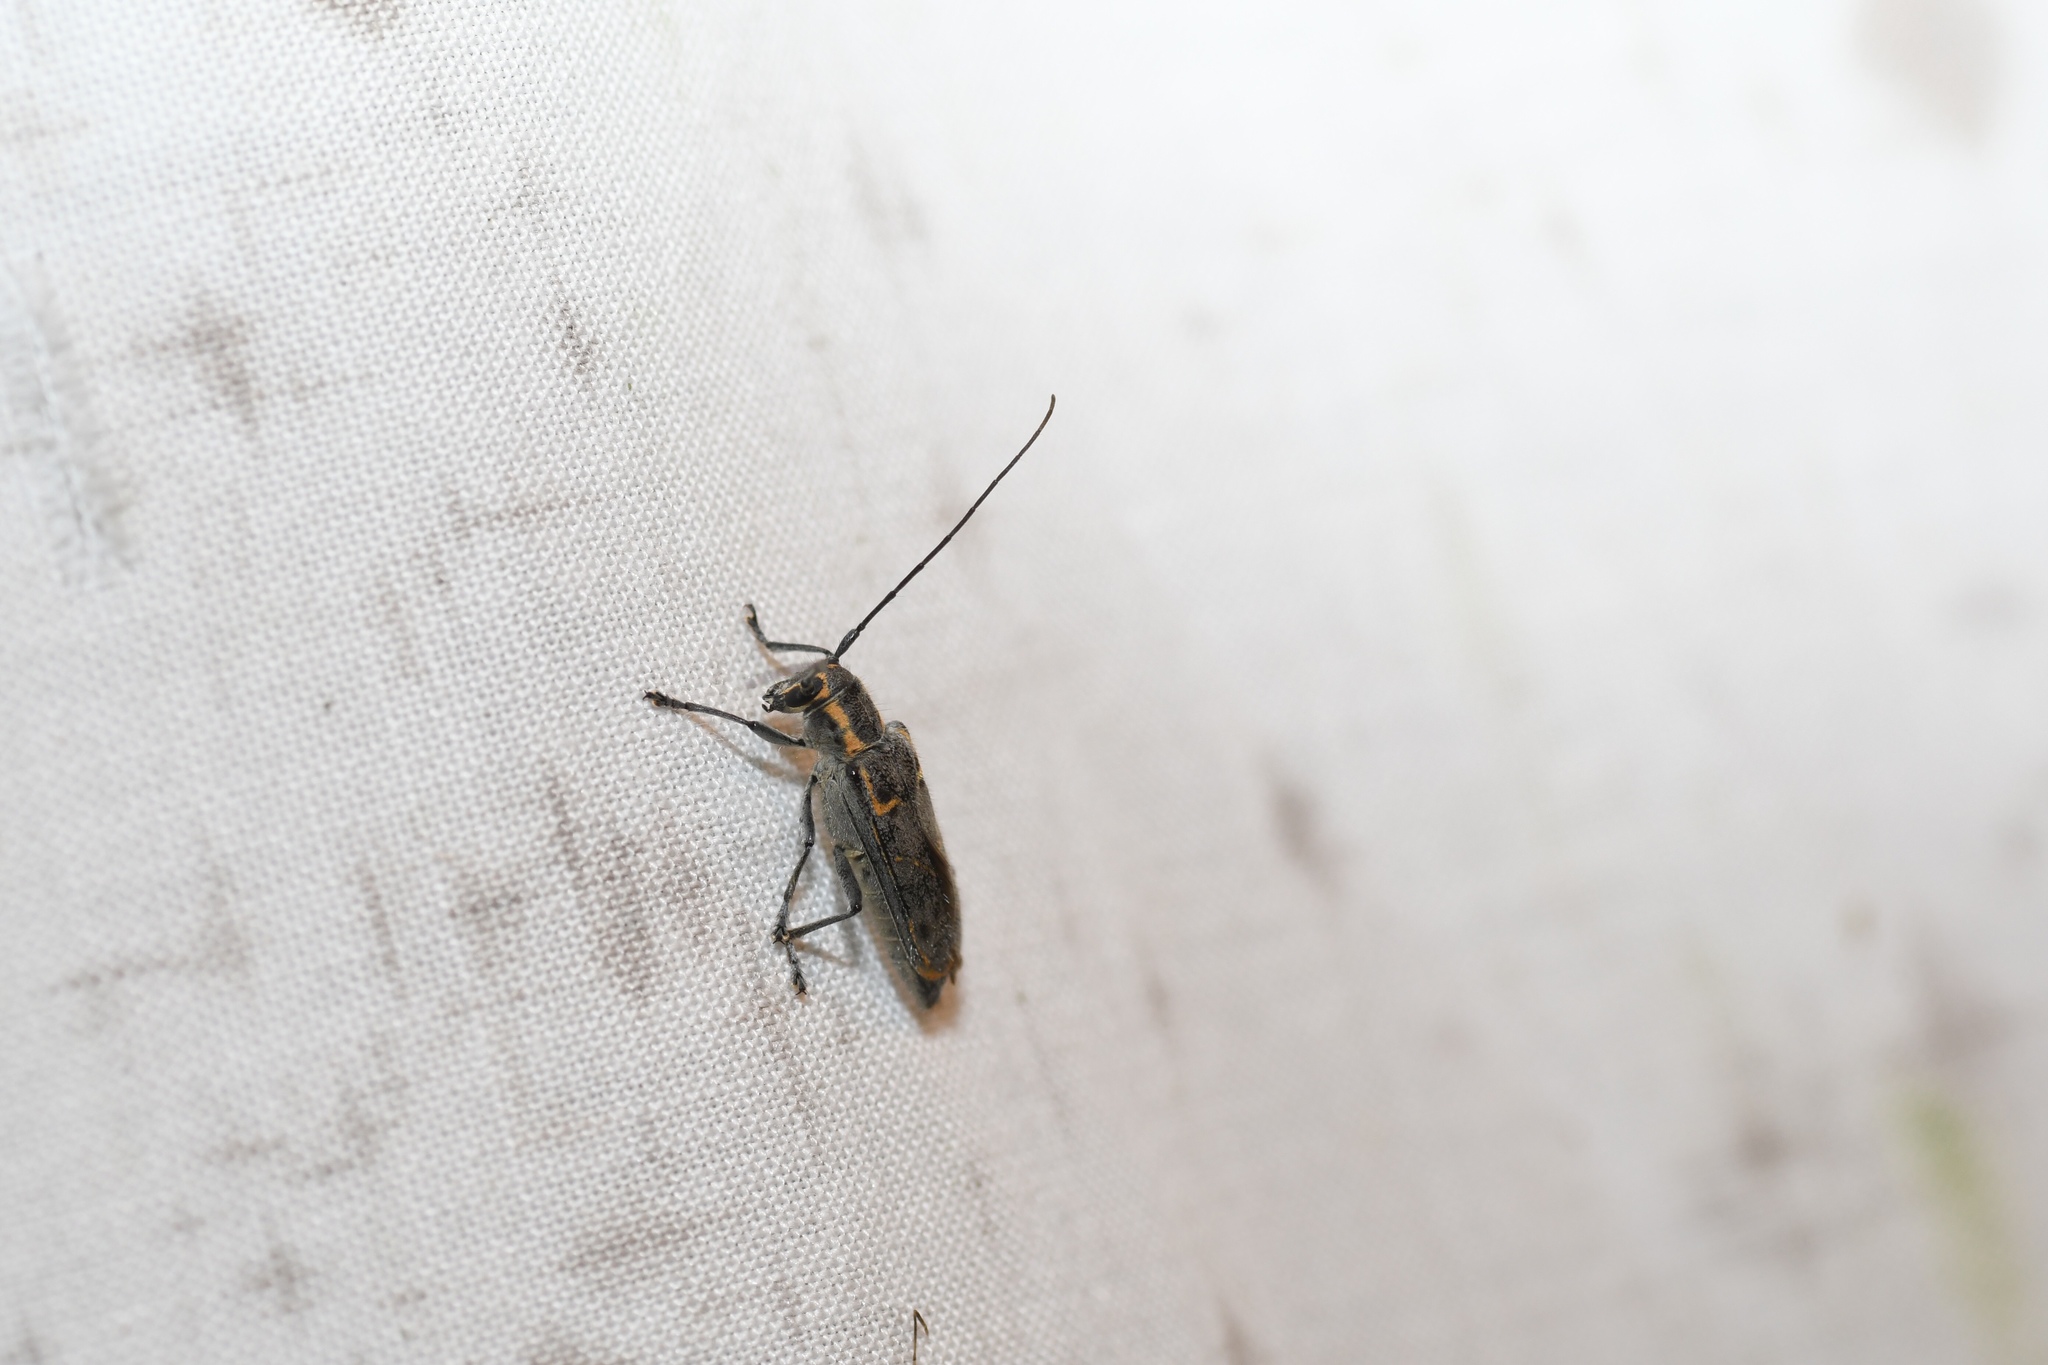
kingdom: Animalia
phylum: Arthropoda
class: Insecta
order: Coleoptera
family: Cerambycidae
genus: Saperda
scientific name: Saperda tridentata
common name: Elm borer
